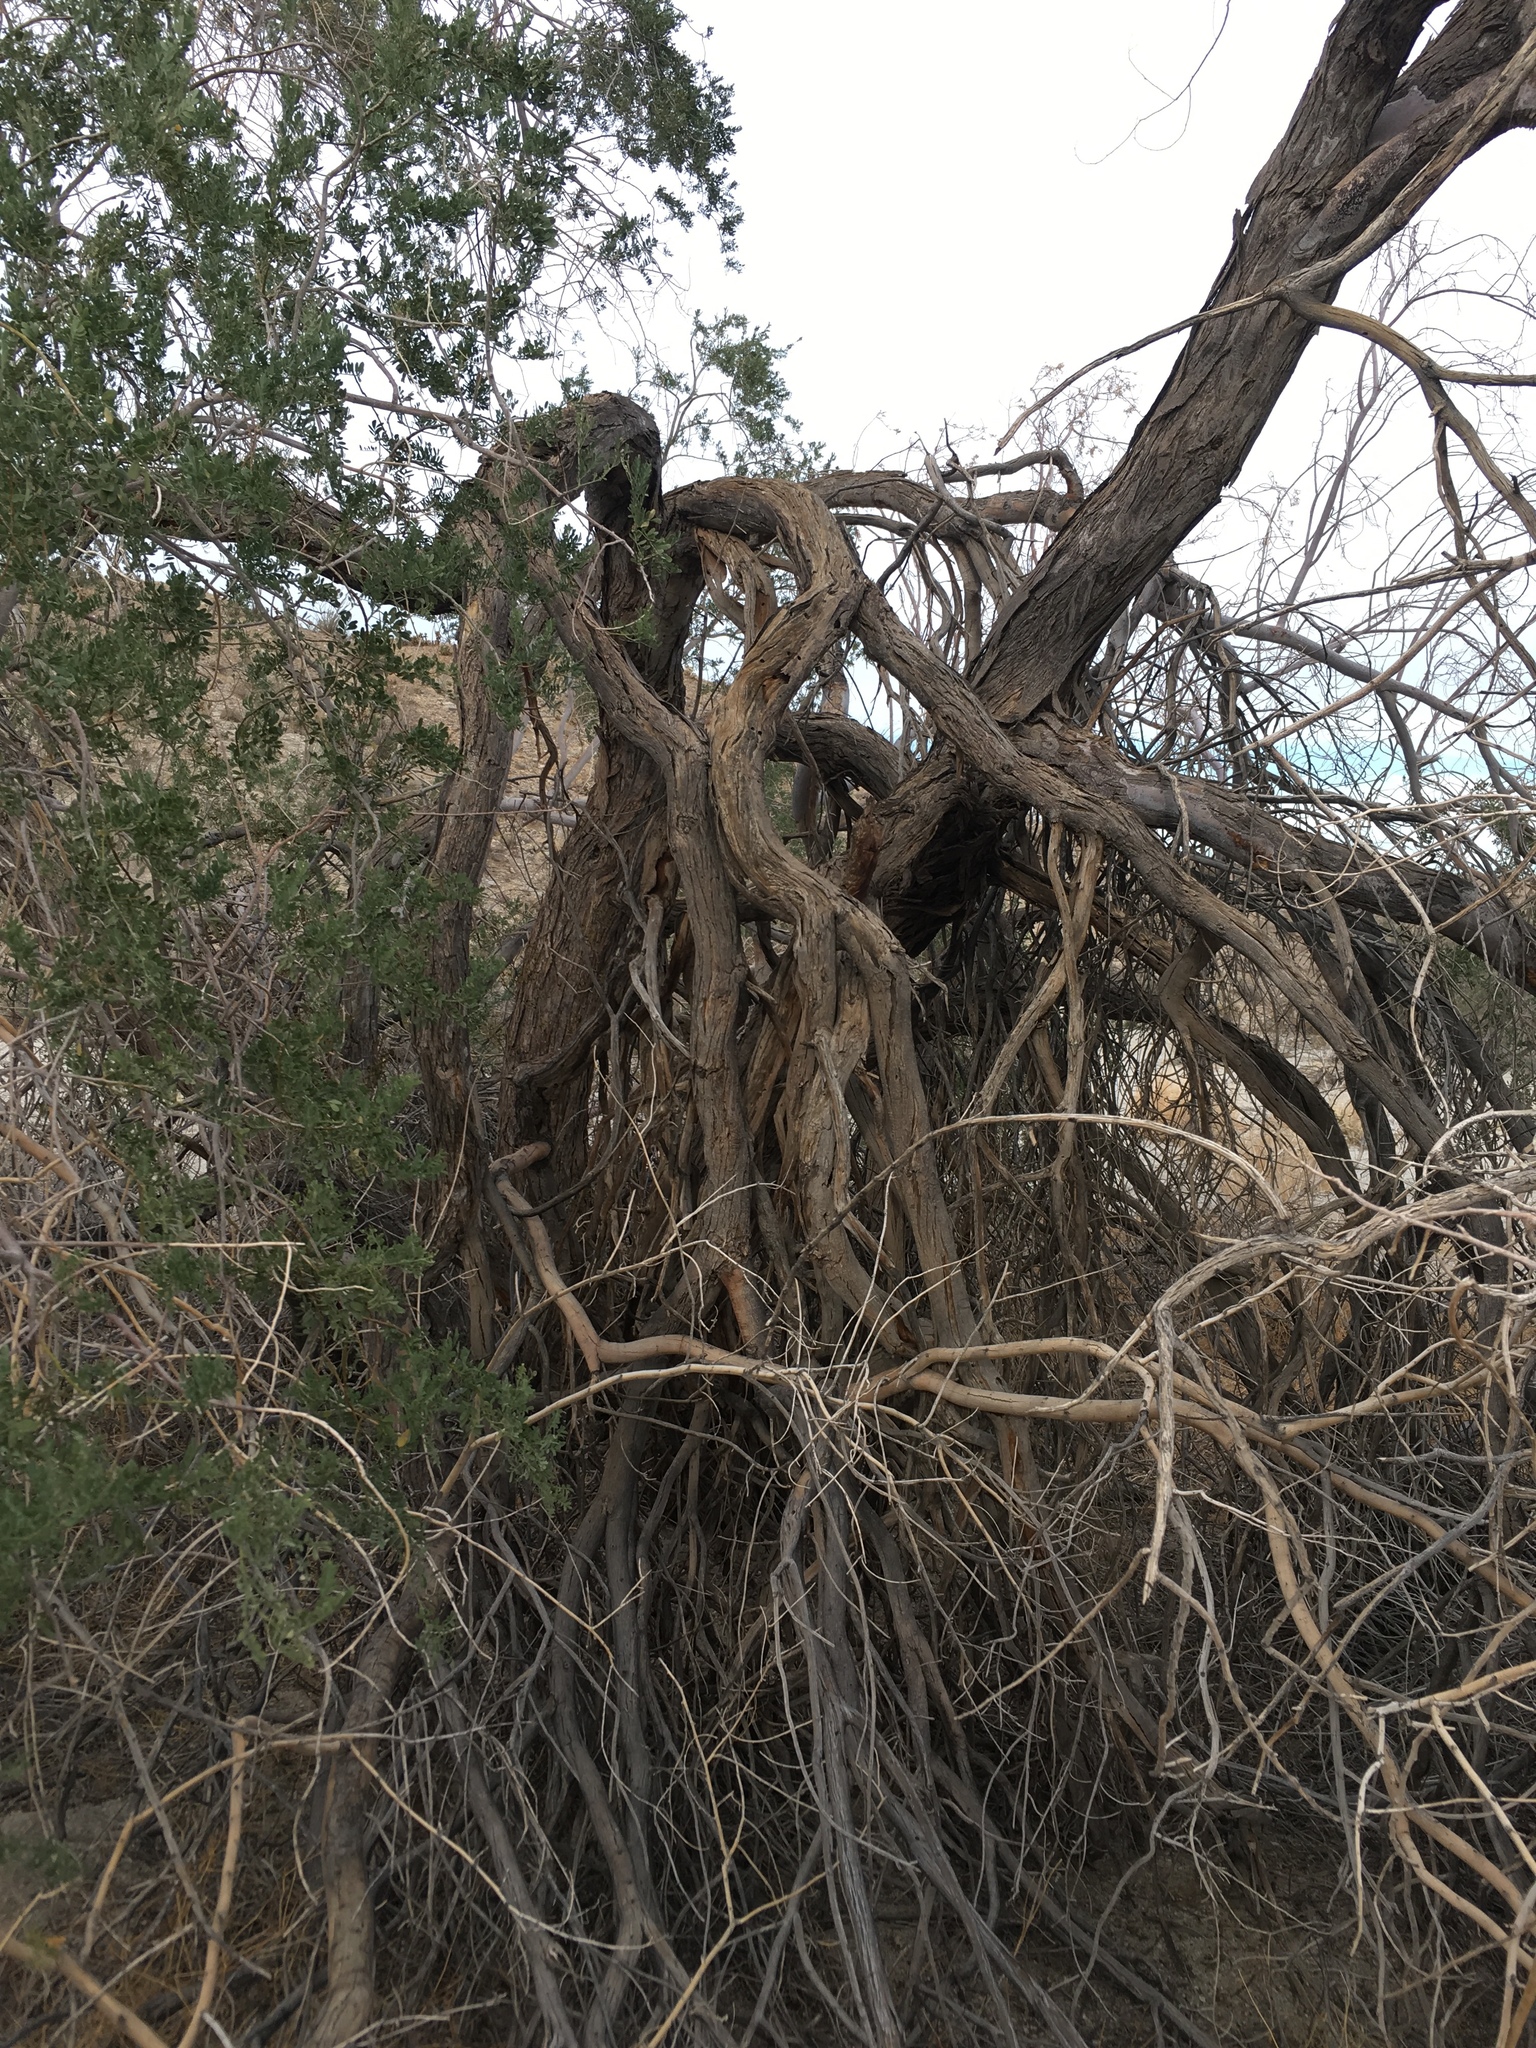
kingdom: Plantae
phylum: Tracheophyta
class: Magnoliopsida
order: Fabales
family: Fabaceae
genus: Olneya
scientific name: Olneya tesota
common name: Desert ironwood
